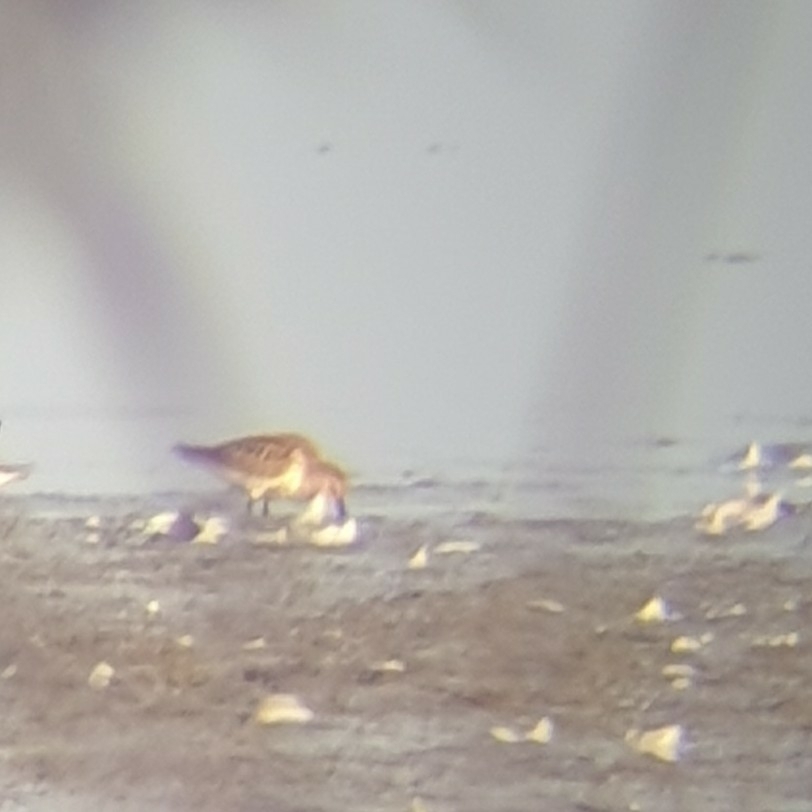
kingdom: Animalia
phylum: Chordata
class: Aves
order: Charadriiformes
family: Scolopacidae
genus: Calidris
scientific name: Calidris alpina
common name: Dunlin
